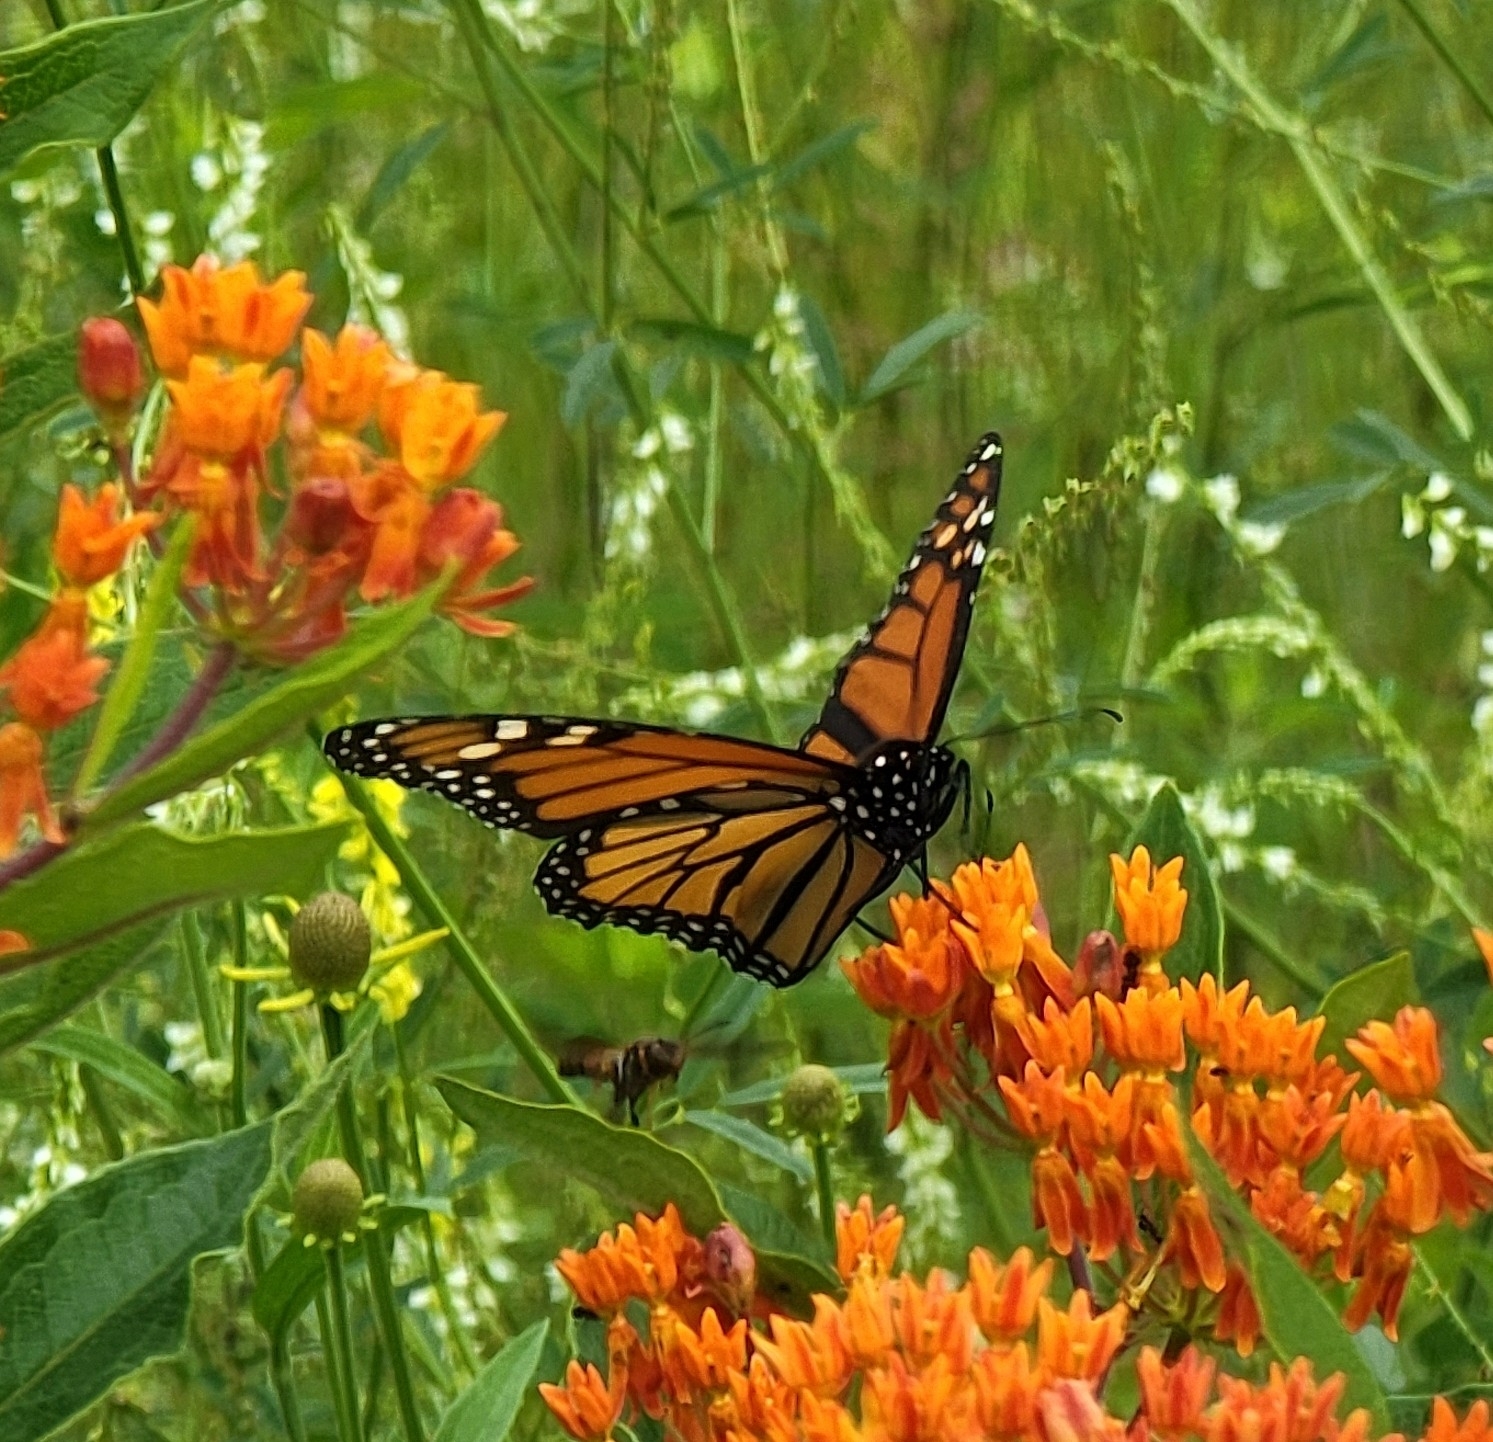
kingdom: Animalia
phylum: Arthropoda
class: Insecta
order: Lepidoptera
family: Nymphalidae
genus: Danaus
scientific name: Danaus plexippus
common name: Monarch
